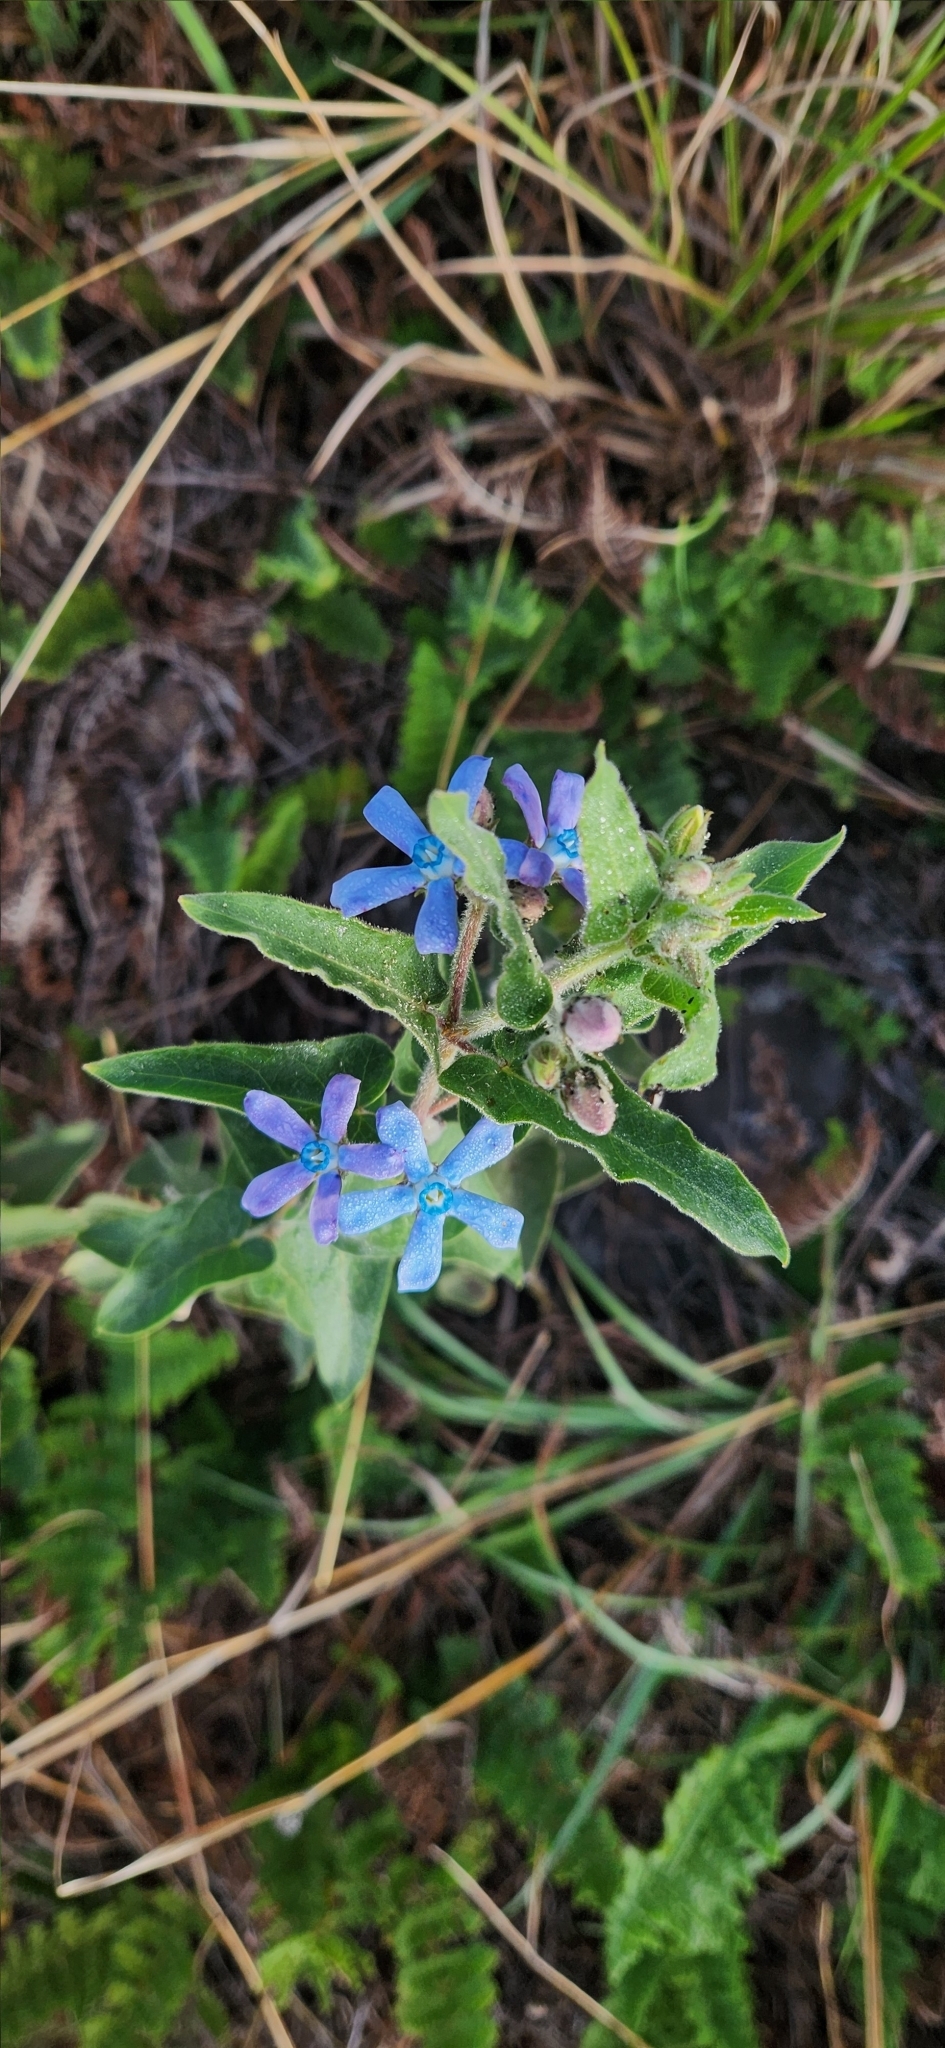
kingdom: Plantae
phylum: Tracheophyta
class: Magnoliopsida
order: Gentianales
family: Apocynaceae
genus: Oxypetalum
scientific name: Oxypetalum coeruleum
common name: Southern star
